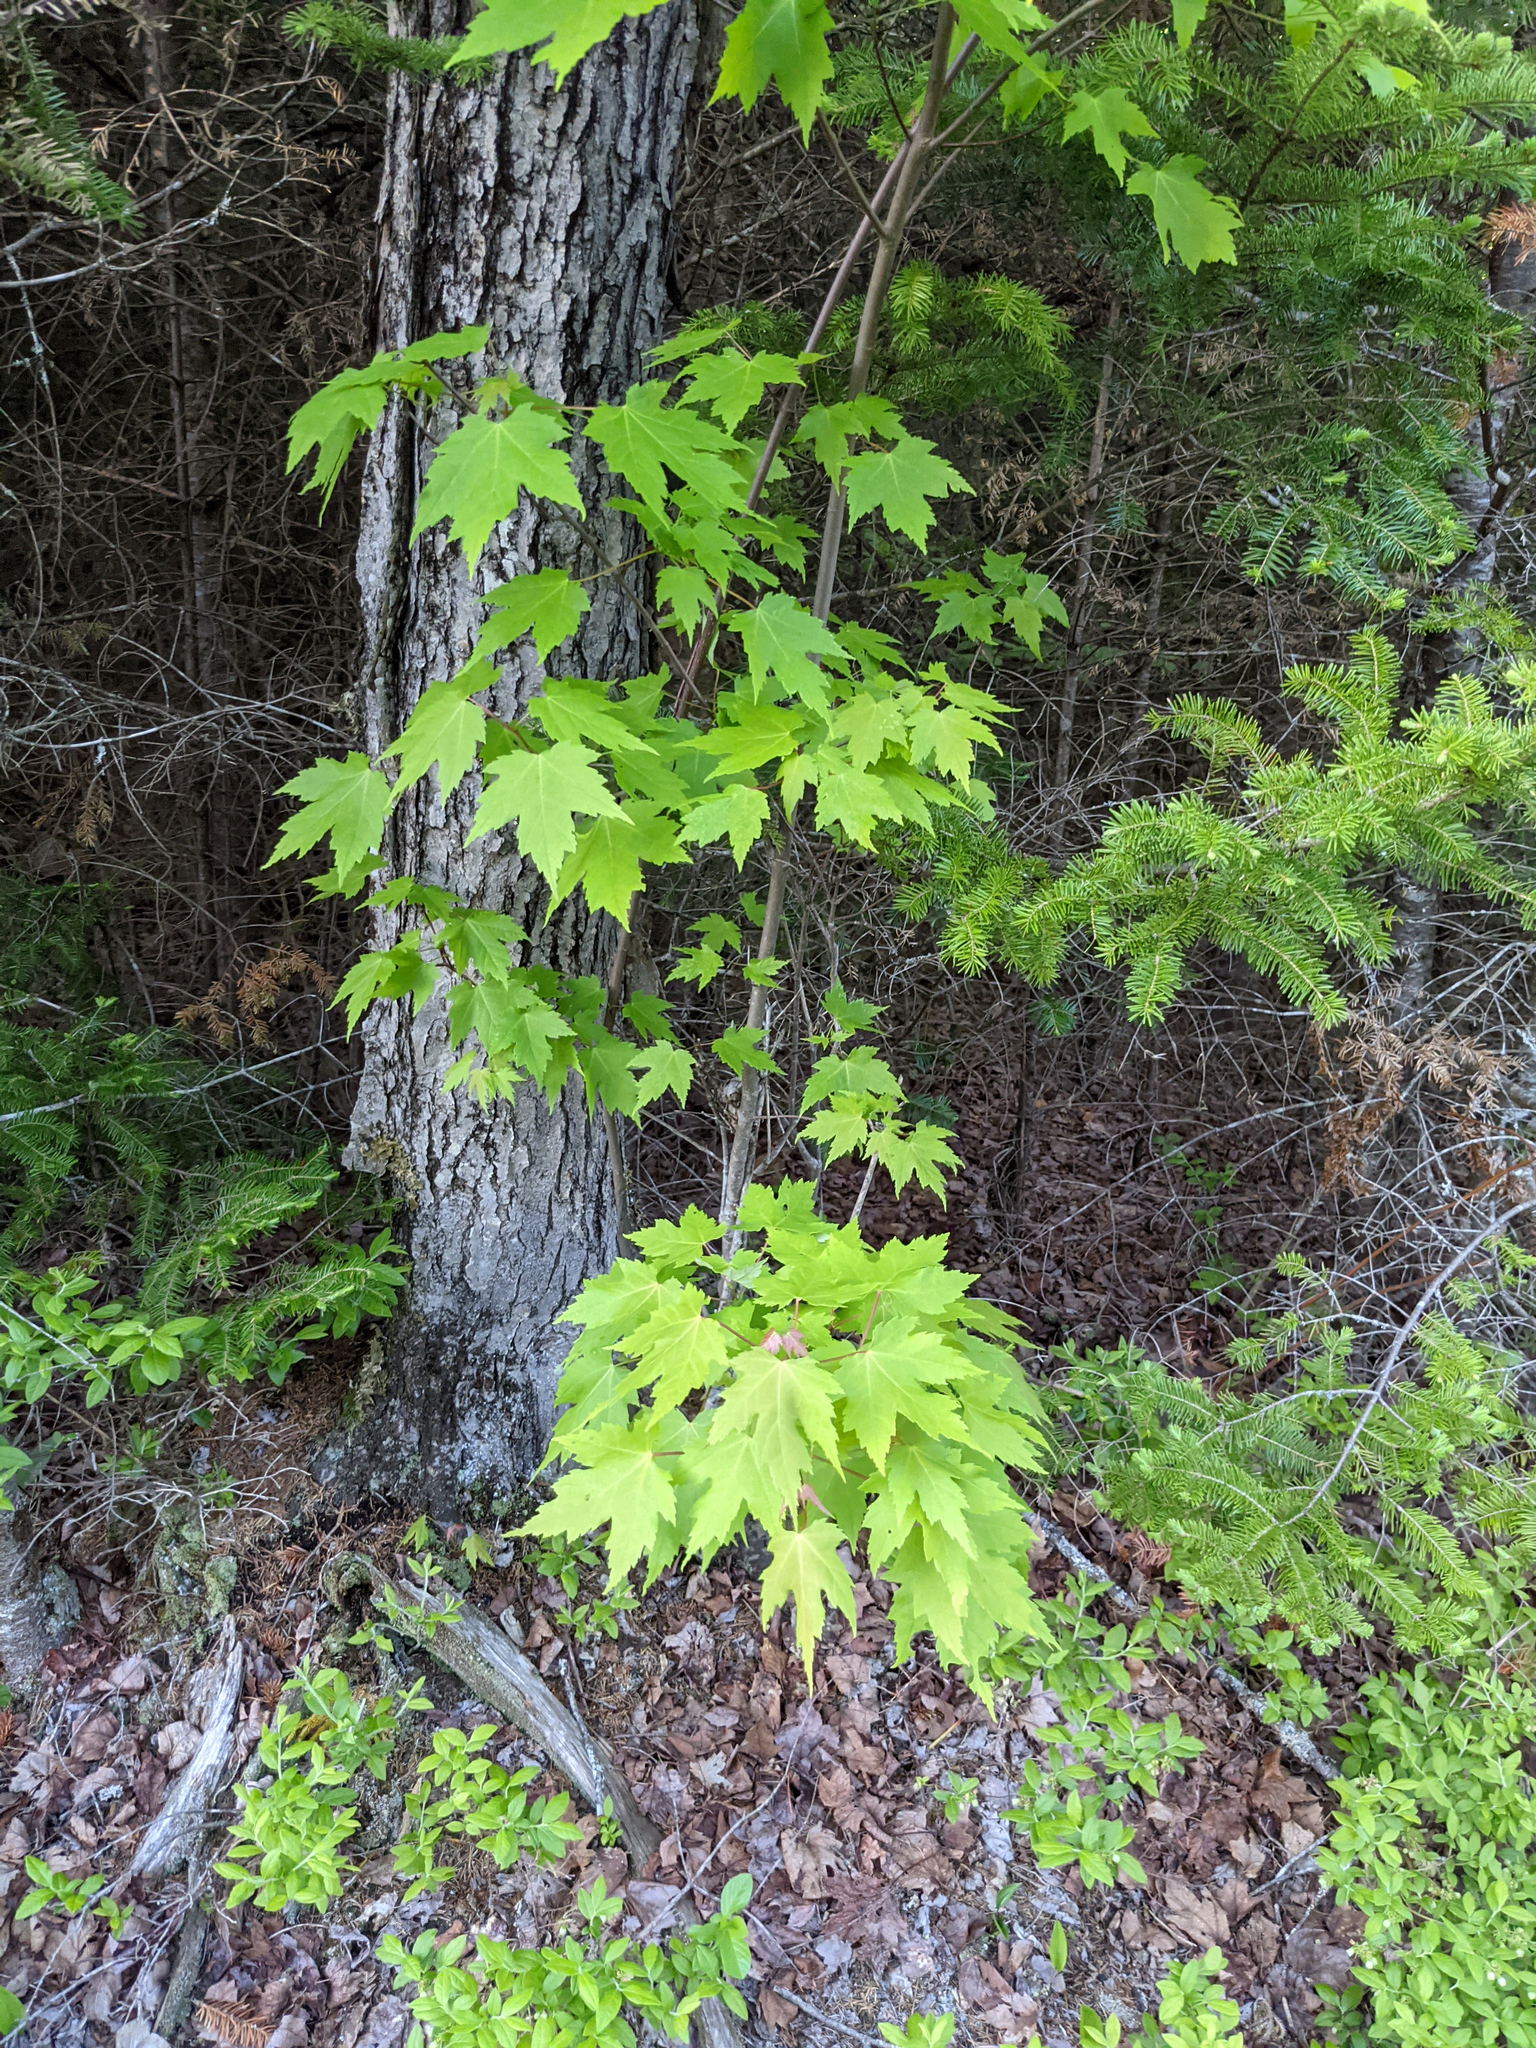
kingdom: Plantae
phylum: Tracheophyta
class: Magnoliopsida
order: Sapindales
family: Sapindaceae
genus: Acer
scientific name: Acer rubrum
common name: Red maple
